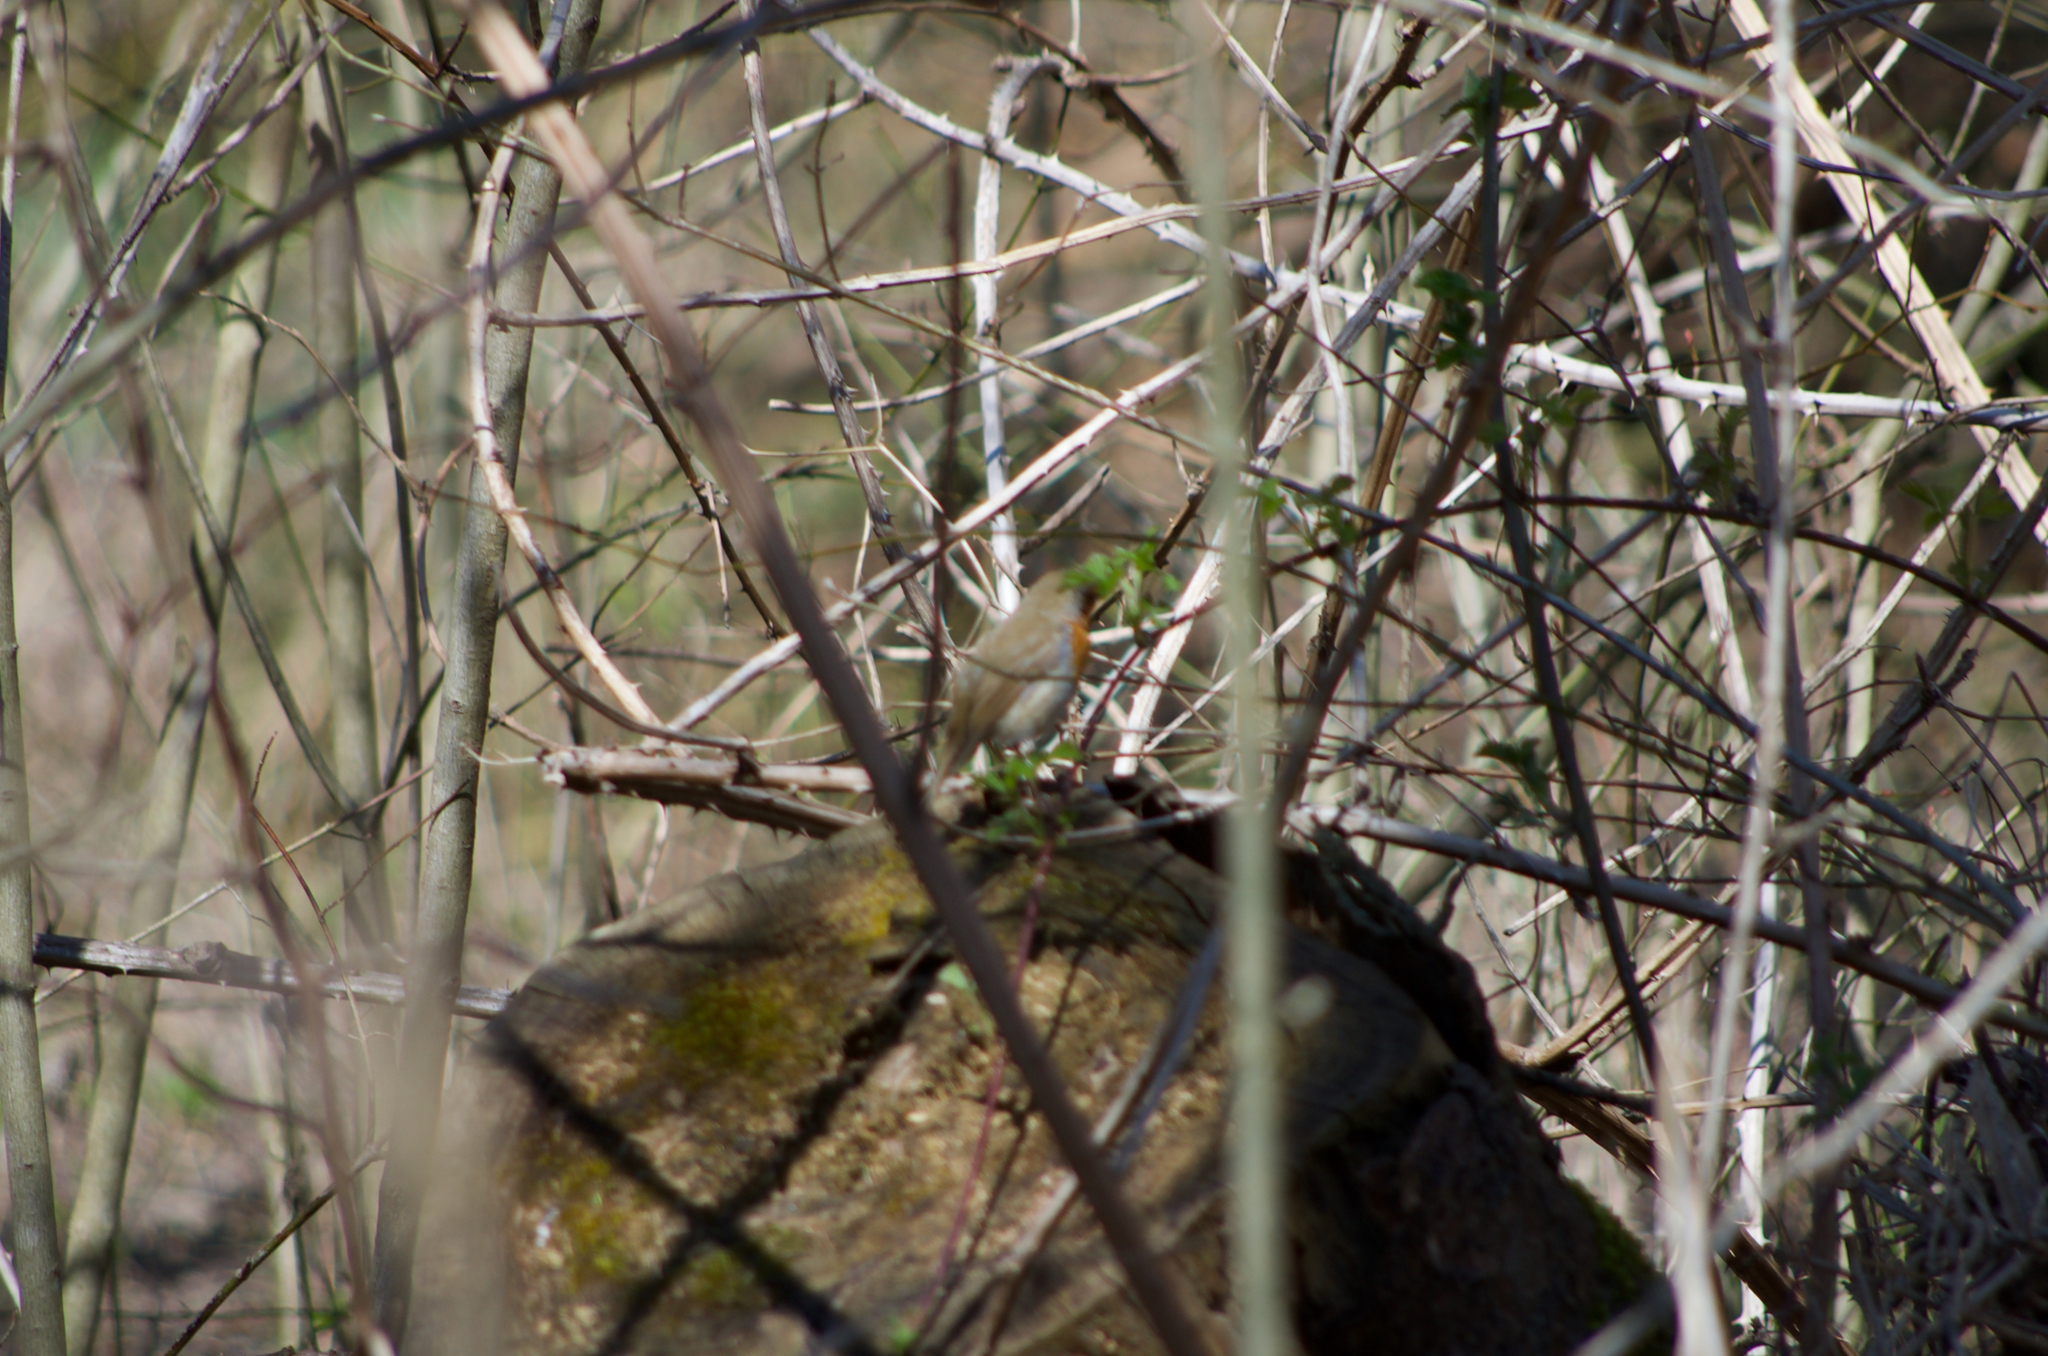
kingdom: Animalia
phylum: Chordata
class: Aves
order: Passeriformes
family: Muscicapidae
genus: Erithacus
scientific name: Erithacus rubecula
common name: European robin
